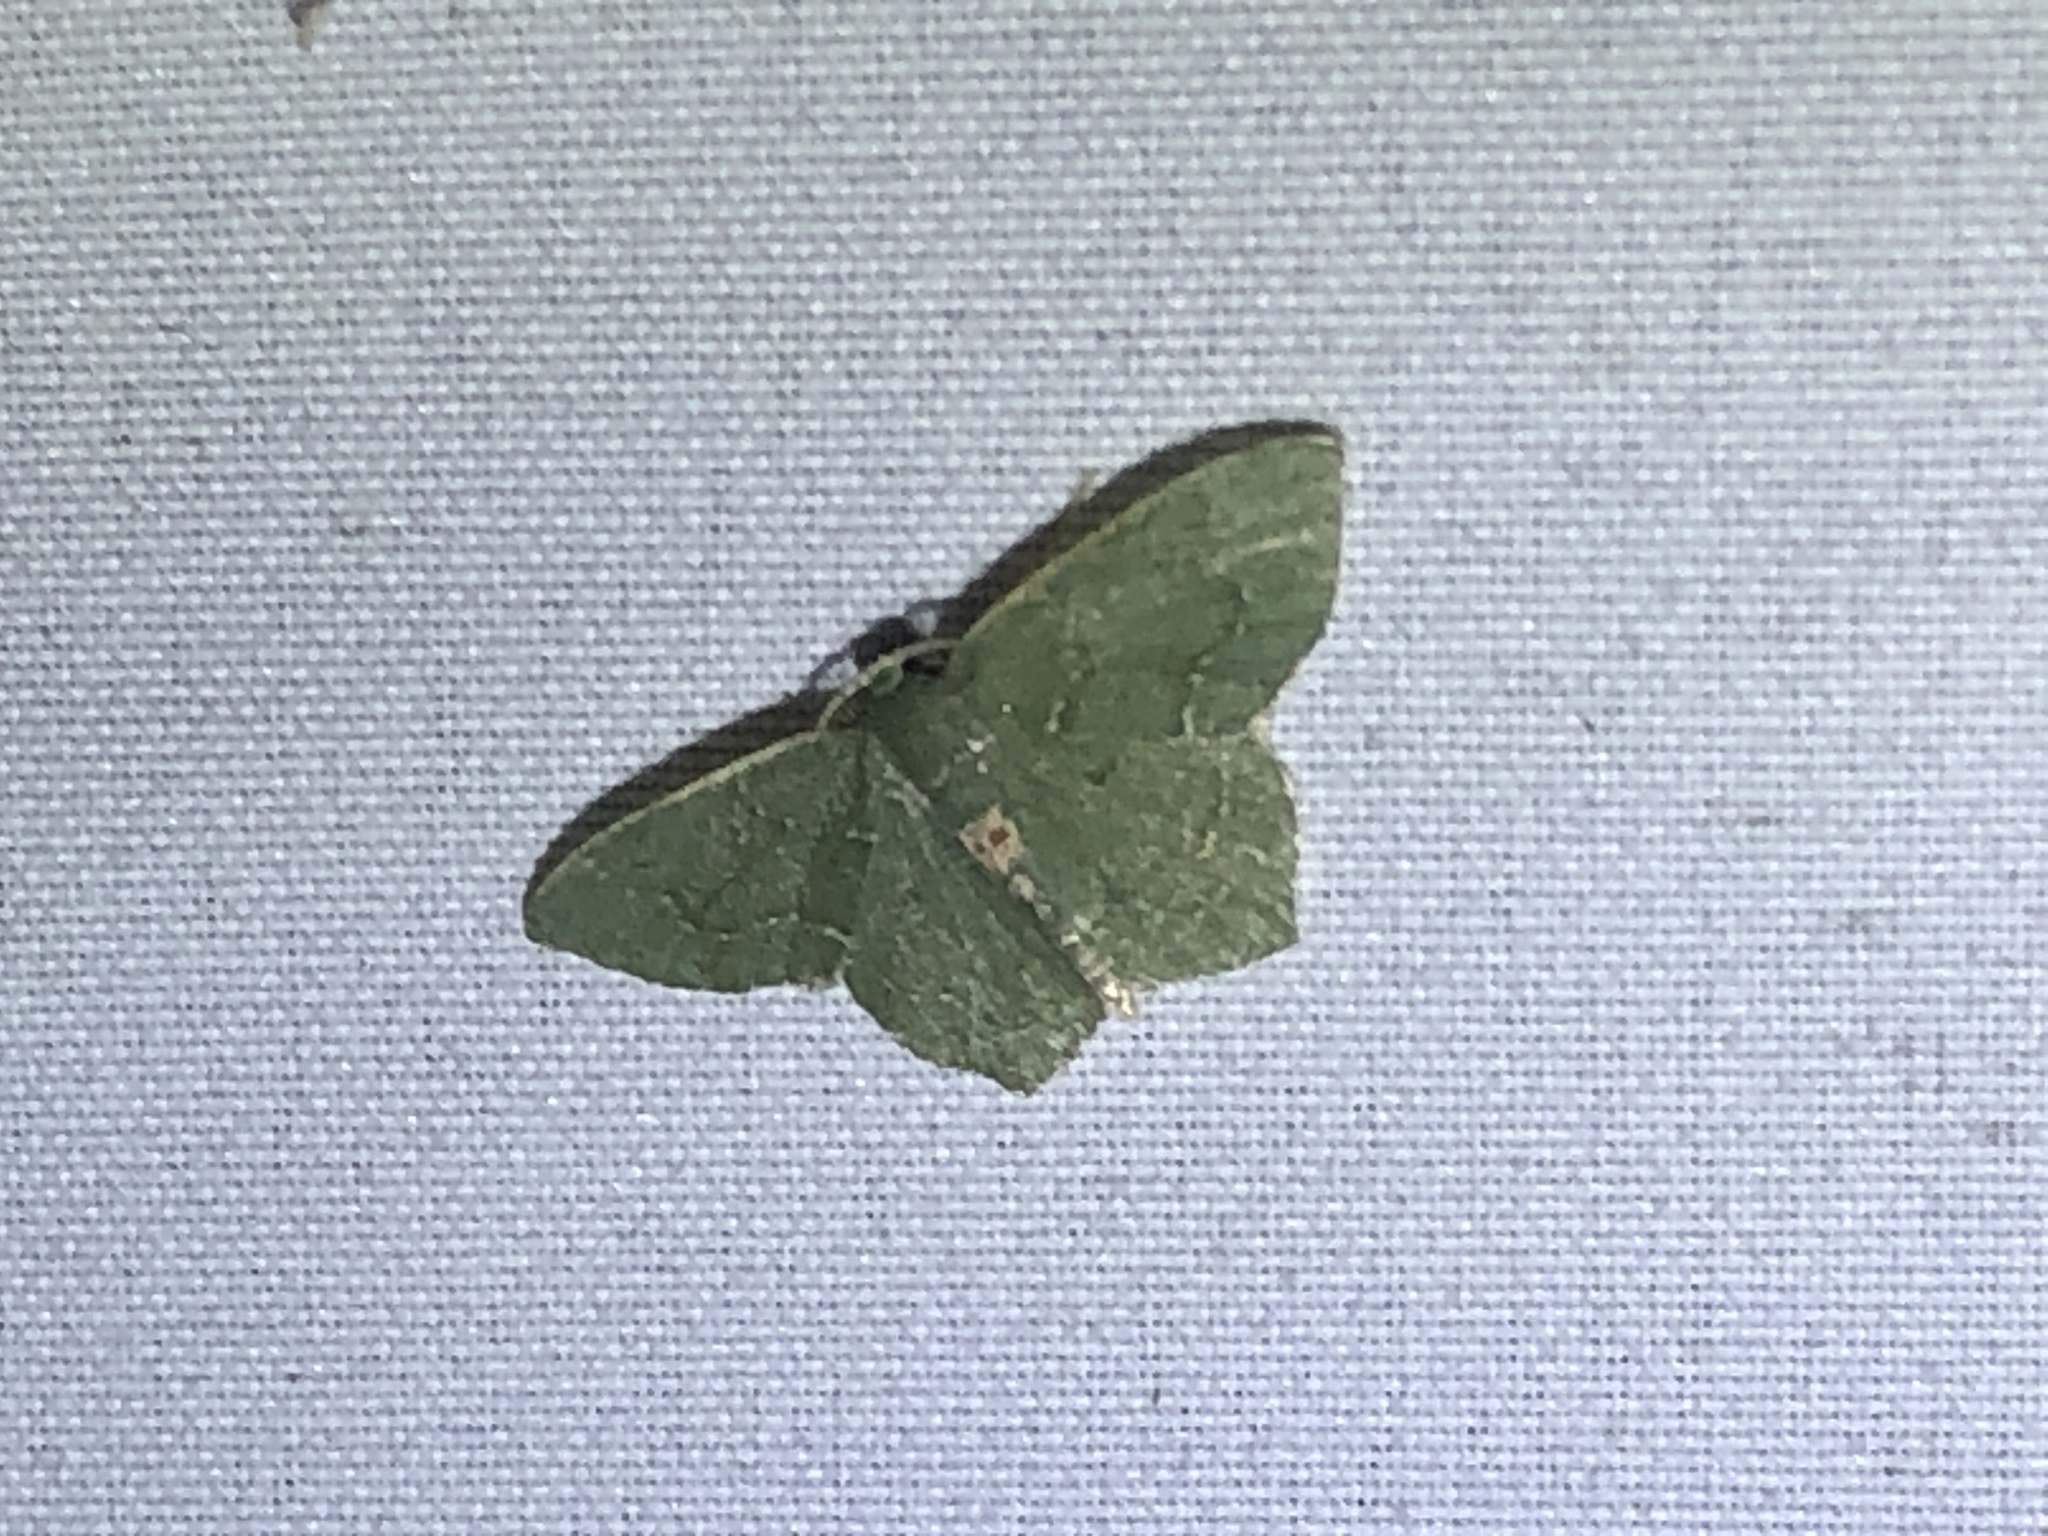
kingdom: Animalia
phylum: Arthropoda
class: Insecta
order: Lepidoptera
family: Geometridae
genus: Chloropteryx
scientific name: Chloropteryx nordicaria
